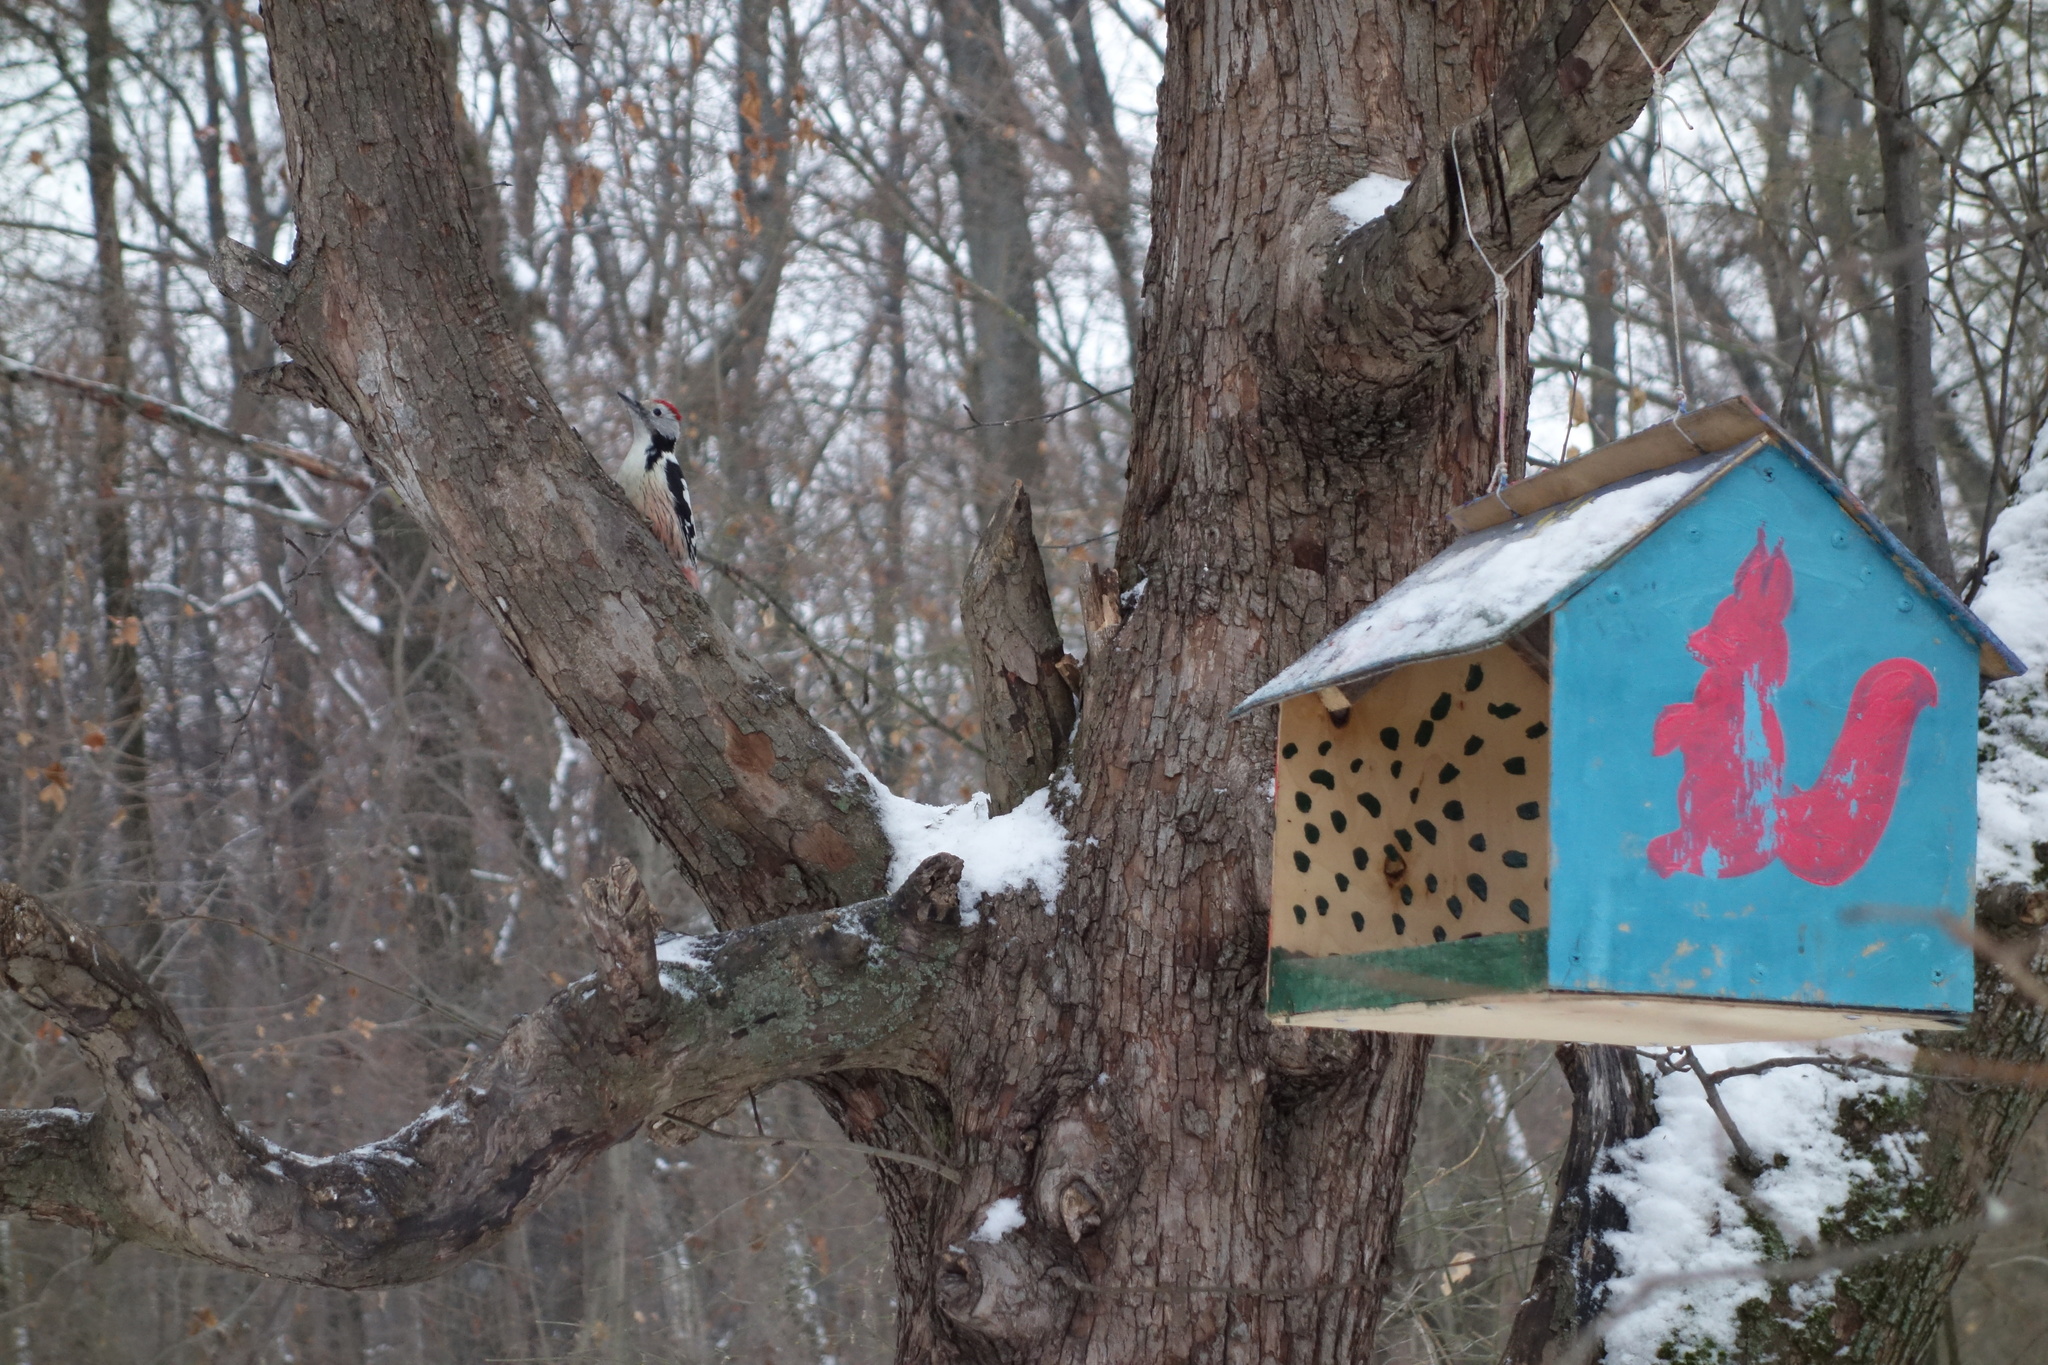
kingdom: Animalia
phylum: Chordata
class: Aves
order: Piciformes
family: Picidae
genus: Dendrocoptes
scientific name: Dendrocoptes medius
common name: Middle spotted woodpecker
